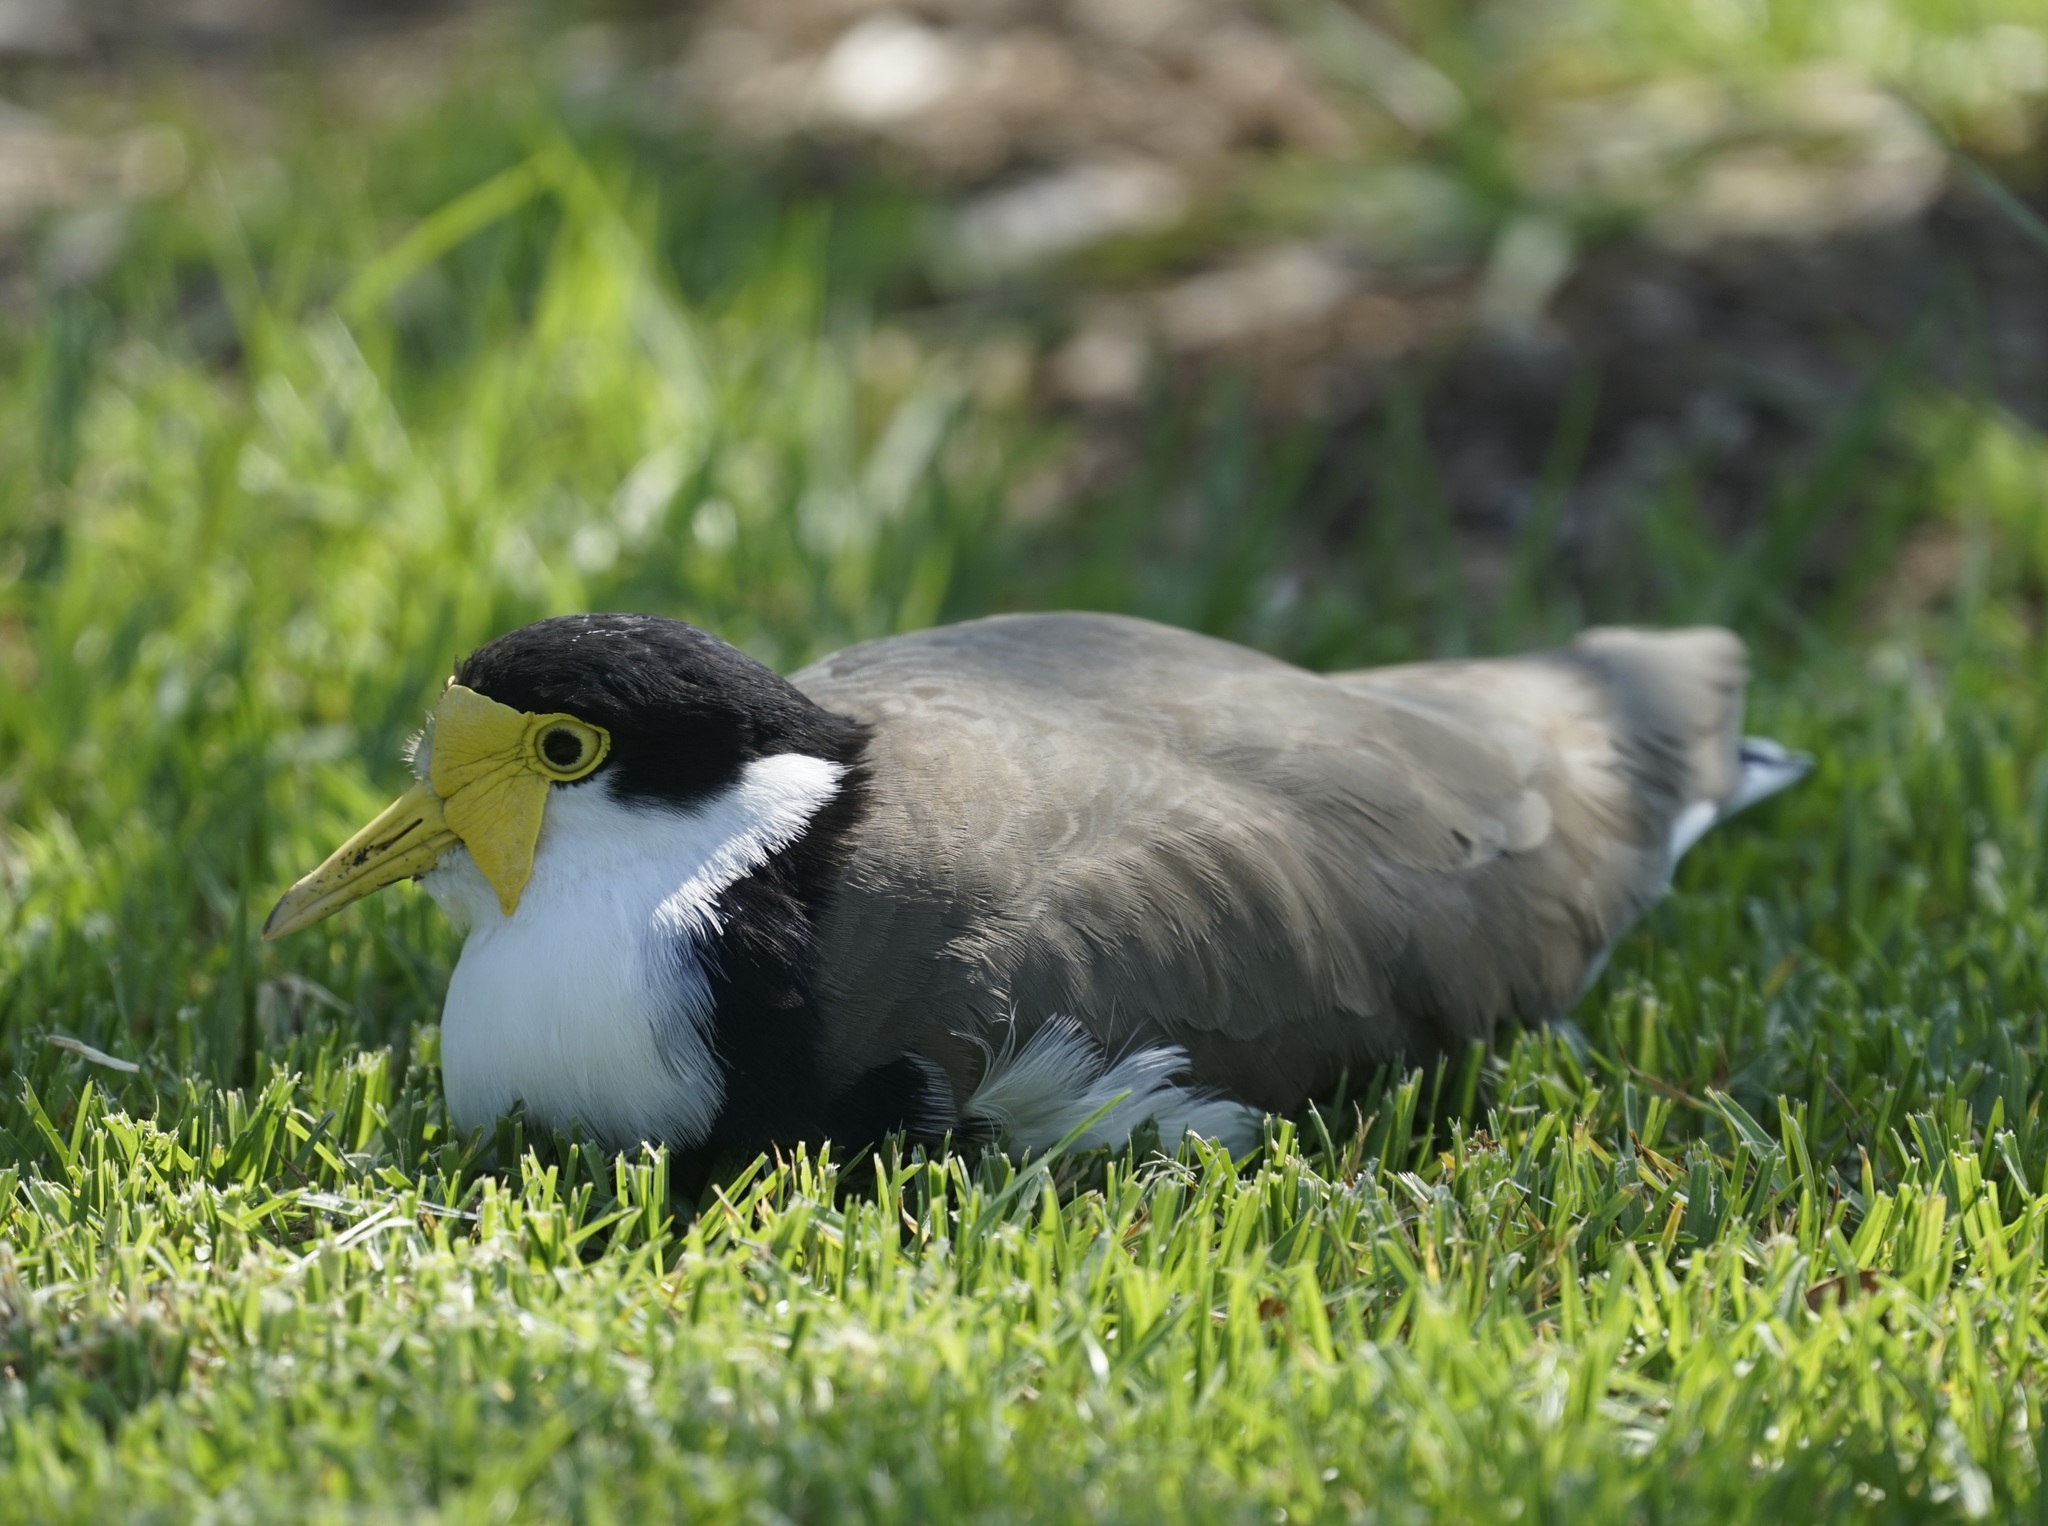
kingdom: Animalia
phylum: Chordata
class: Aves
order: Charadriiformes
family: Charadriidae
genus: Vanellus
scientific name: Vanellus miles
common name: Masked lapwing
